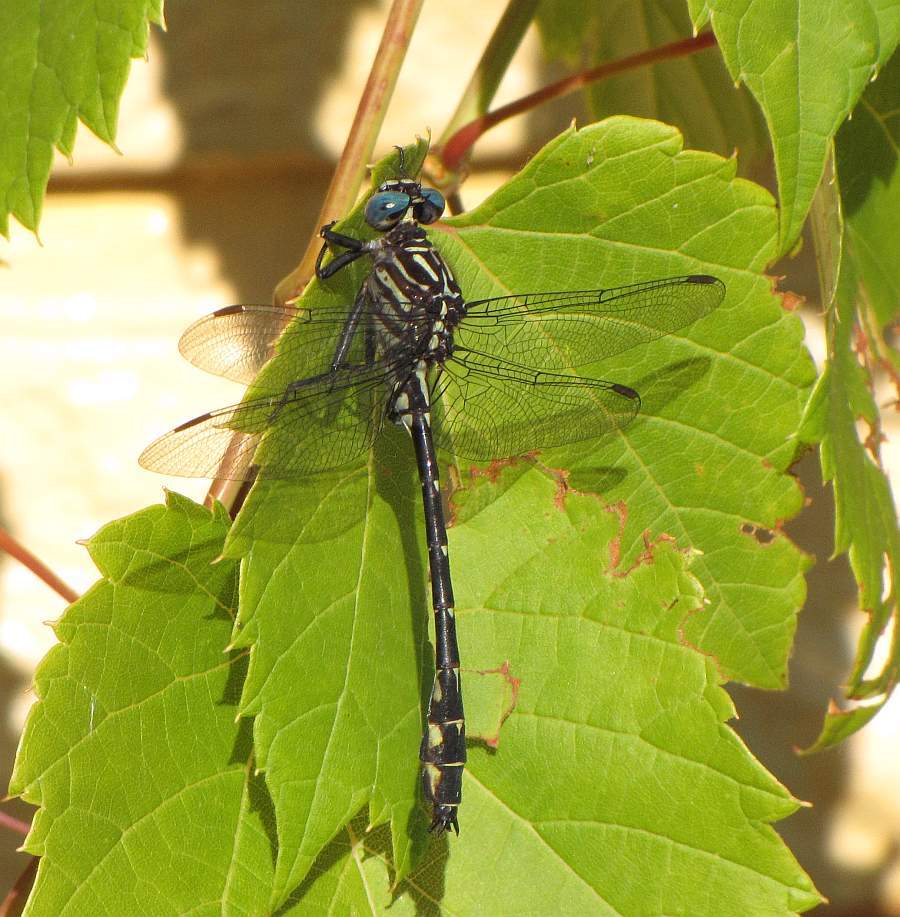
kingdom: Animalia
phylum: Arthropoda
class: Insecta
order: Odonata
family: Gomphidae
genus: Stylurus
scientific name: Stylurus notatus
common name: Elusive clubtail
